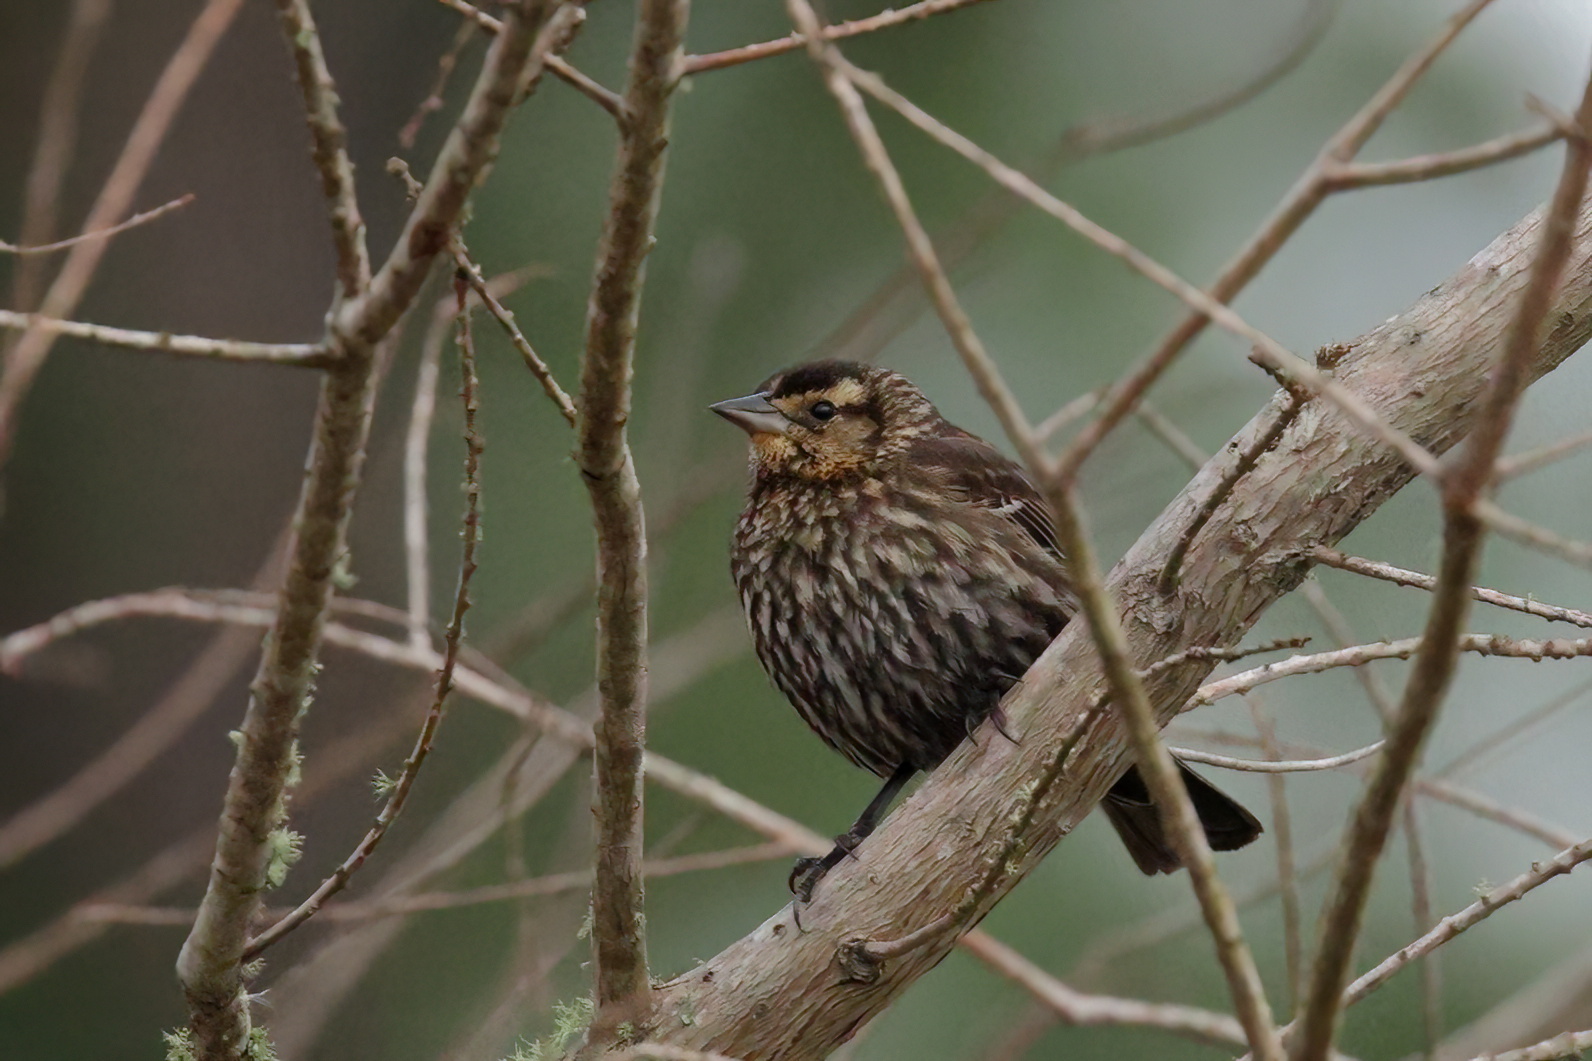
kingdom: Animalia
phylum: Chordata
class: Aves
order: Passeriformes
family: Icteridae
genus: Agelaius
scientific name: Agelaius phoeniceus
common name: Red-winged blackbird
